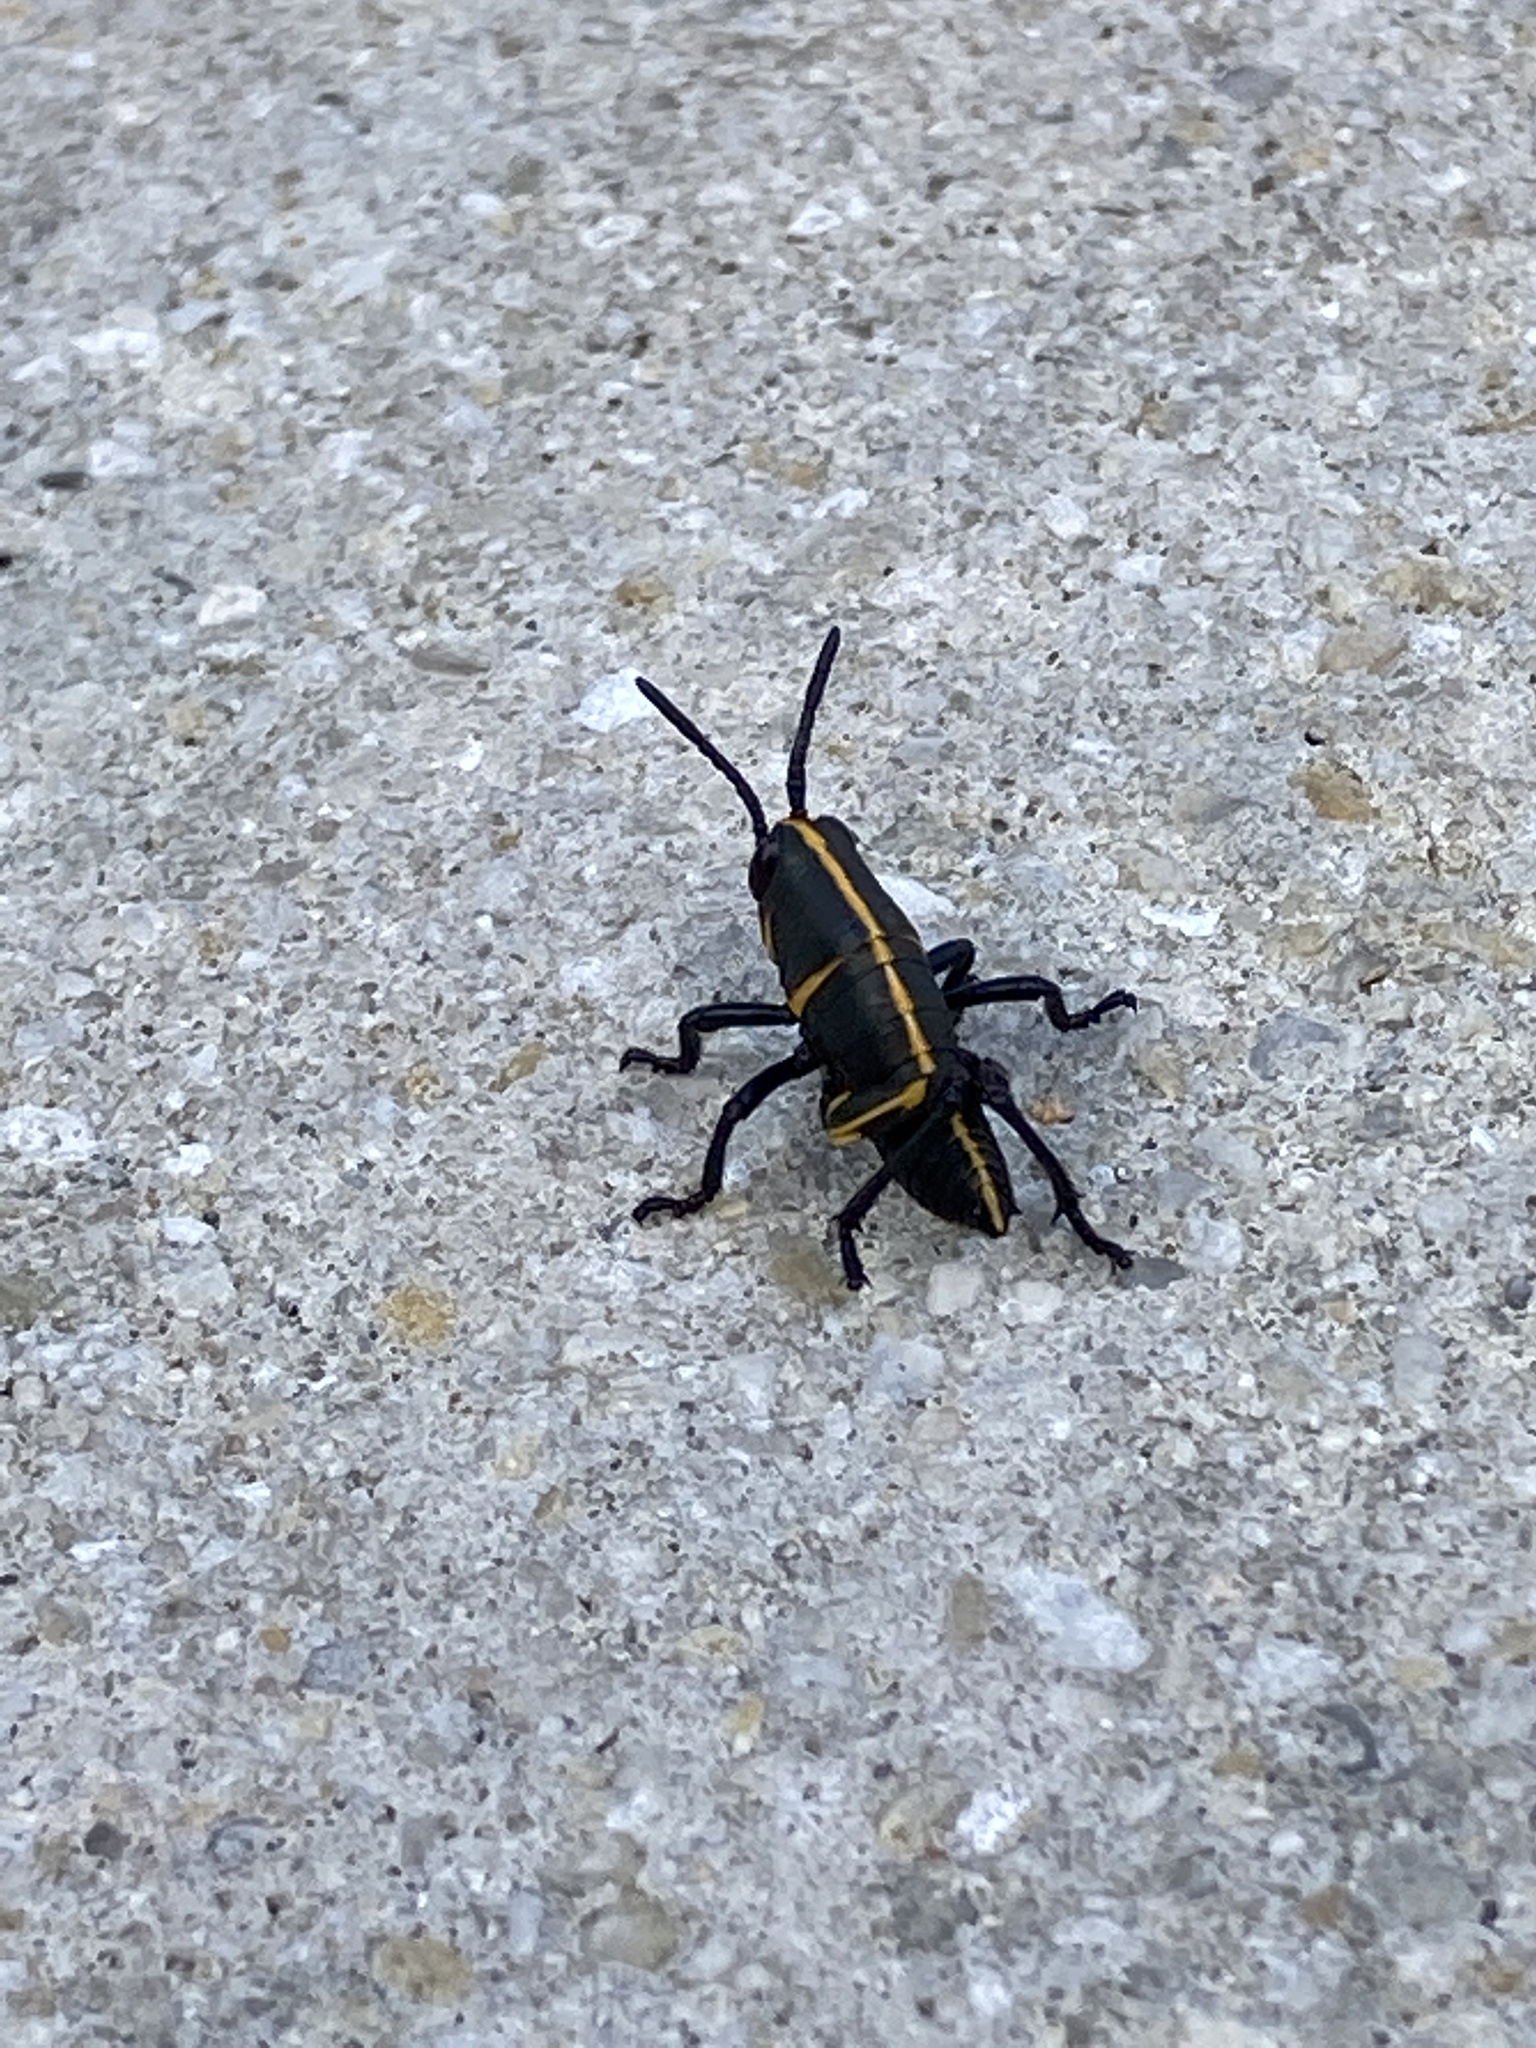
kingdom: Animalia
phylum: Arthropoda
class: Insecta
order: Orthoptera
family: Romaleidae
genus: Romalea
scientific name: Romalea microptera
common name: Eastern lubber grasshopper
